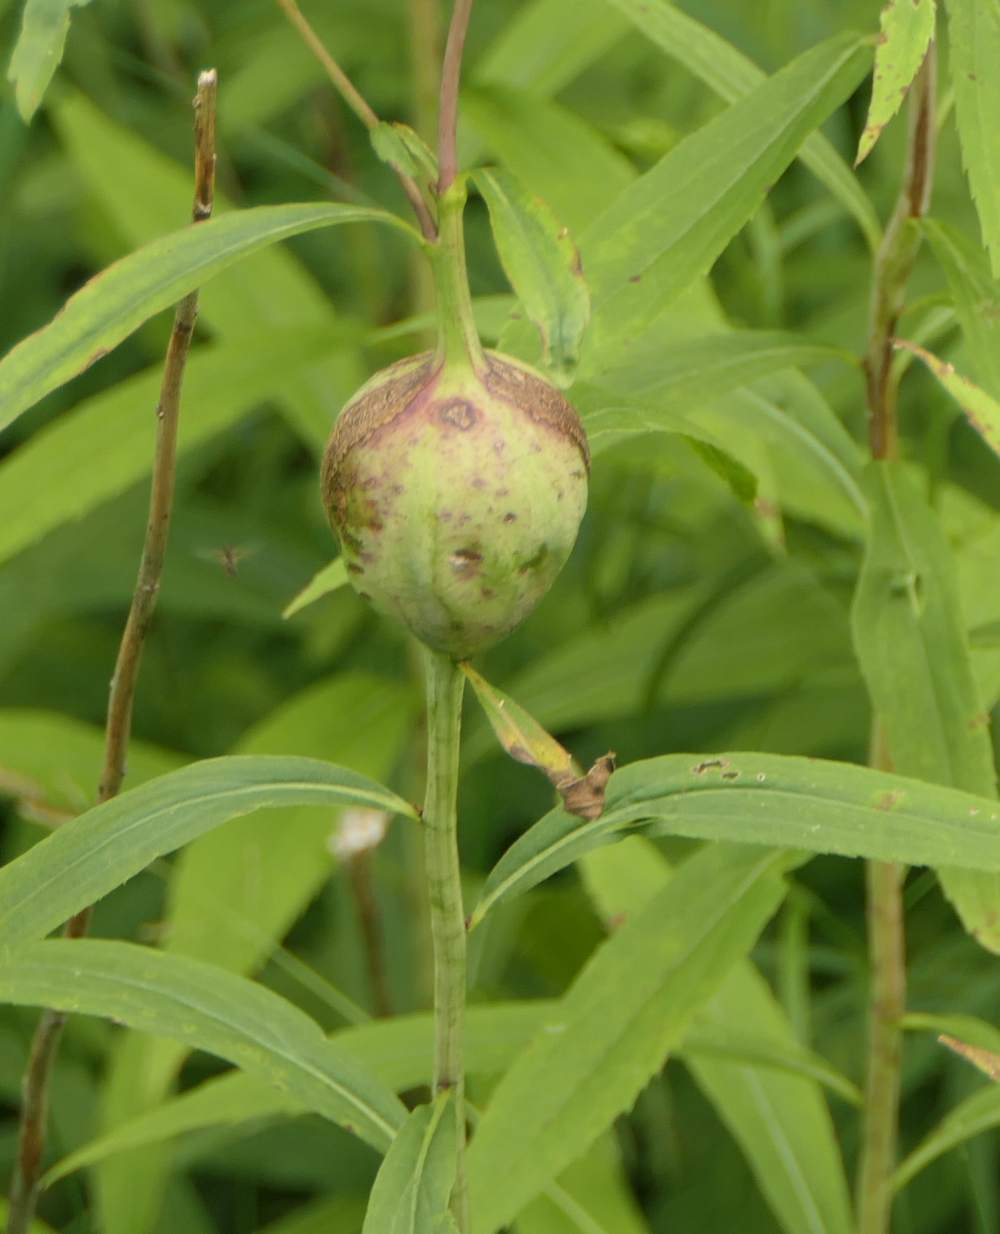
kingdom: Animalia
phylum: Arthropoda
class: Insecta
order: Diptera
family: Tephritidae
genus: Eurosta
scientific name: Eurosta solidaginis
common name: Goldenrod gall fly
